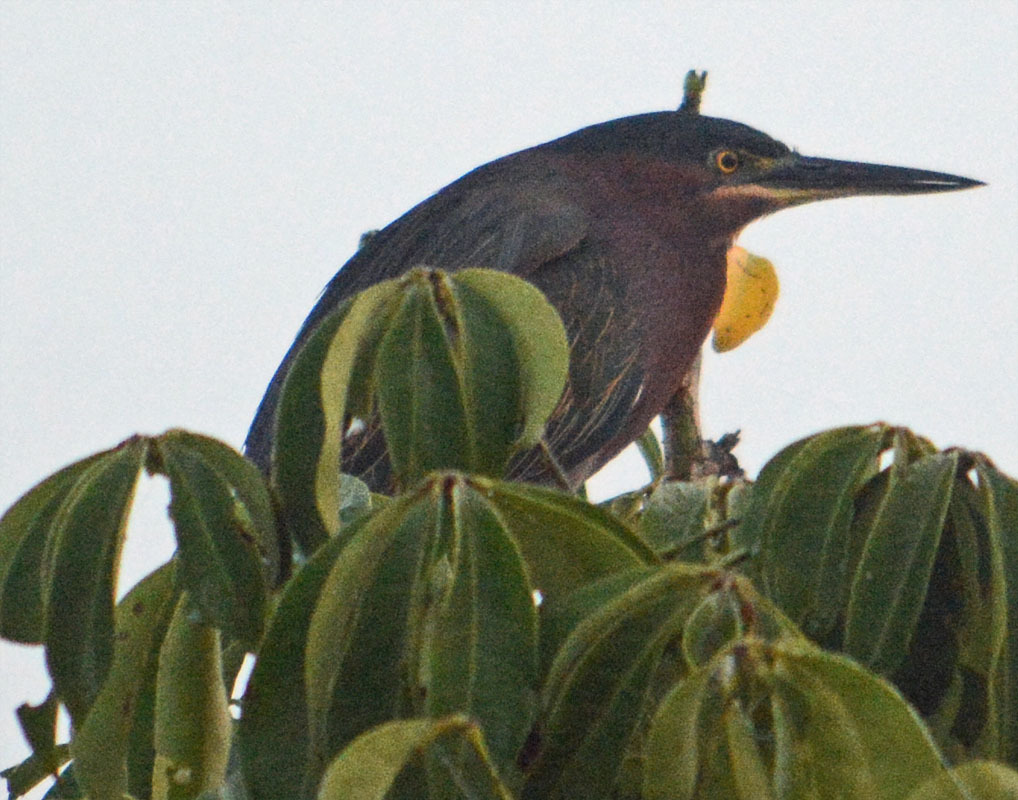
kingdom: Animalia
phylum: Chordata
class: Aves
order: Pelecaniformes
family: Ardeidae
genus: Butorides
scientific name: Butorides virescens
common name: Green heron
